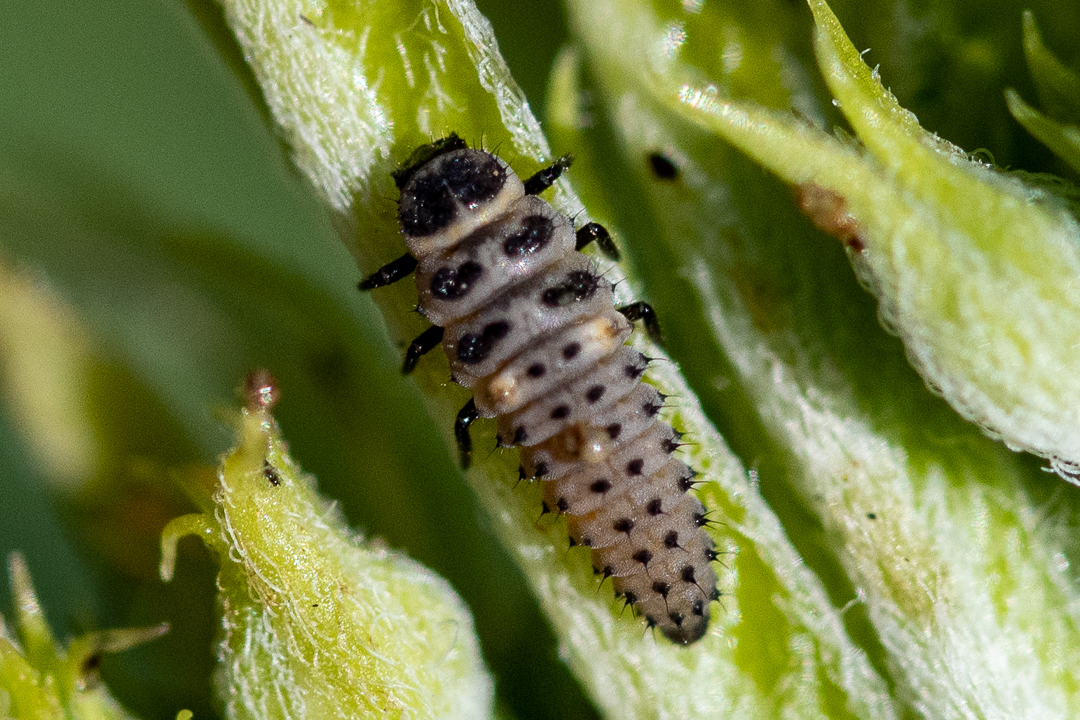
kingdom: Animalia
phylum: Arthropoda
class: Insecta
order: Coleoptera
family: Coccinellidae
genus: Hippodamia
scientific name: Hippodamia variegata
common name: Ladybird beetle
